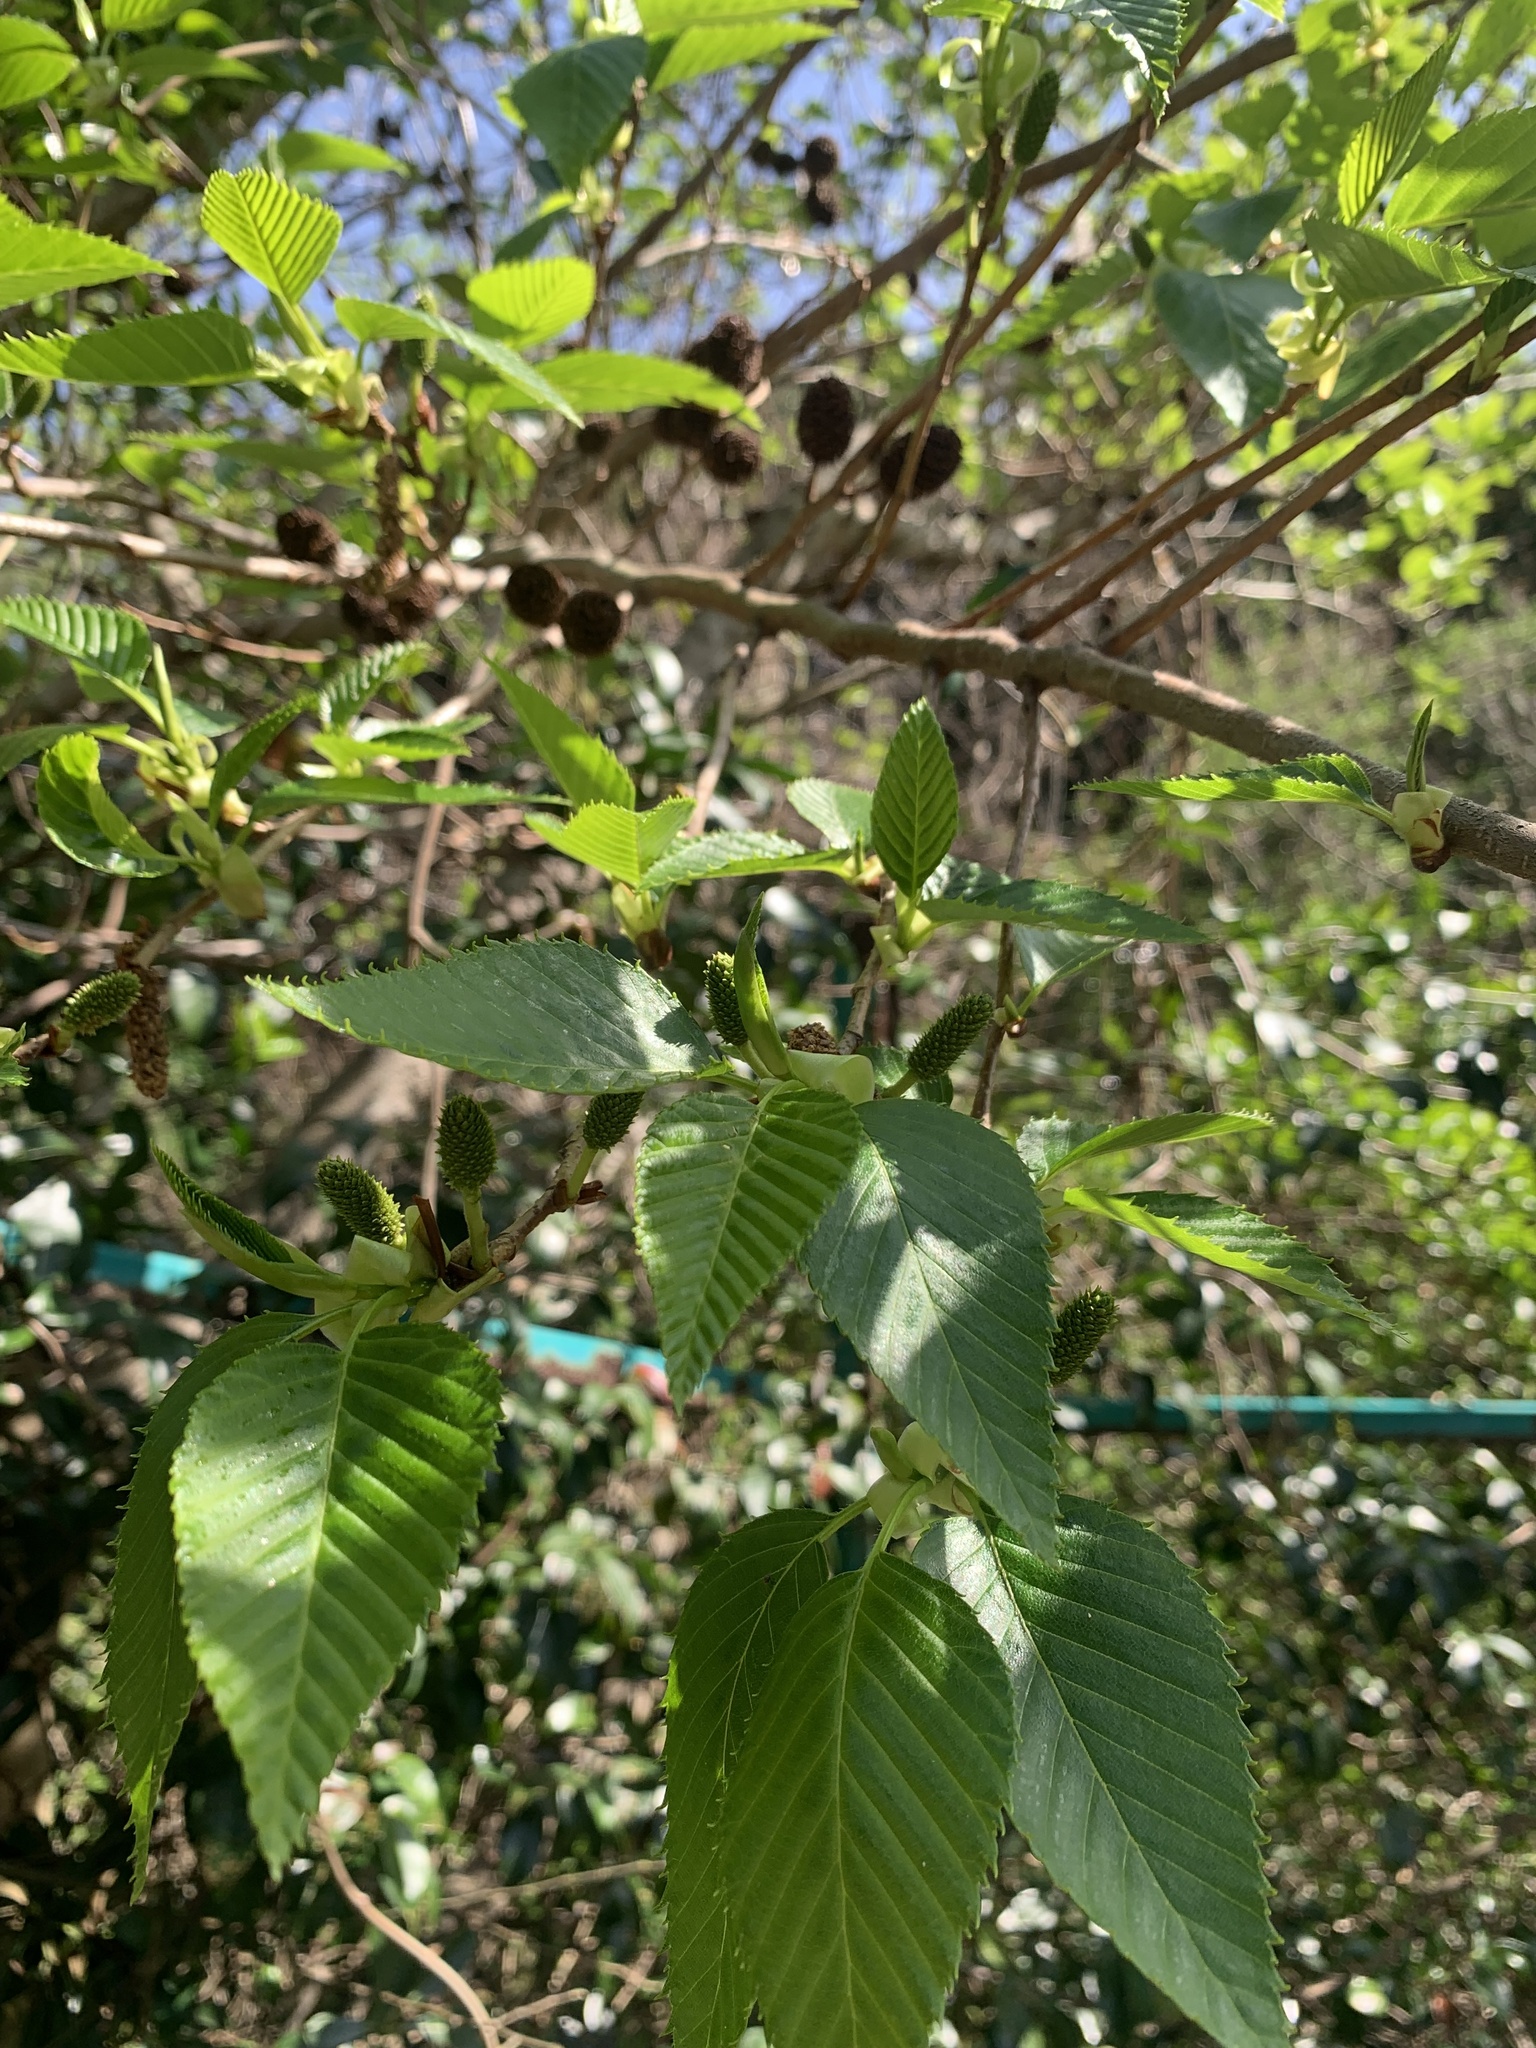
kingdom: Plantae
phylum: Tracheophyta
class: Magnoliopsida
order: Fagales
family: Betulaceae
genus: Alnus
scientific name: Alnus sieboldiana
